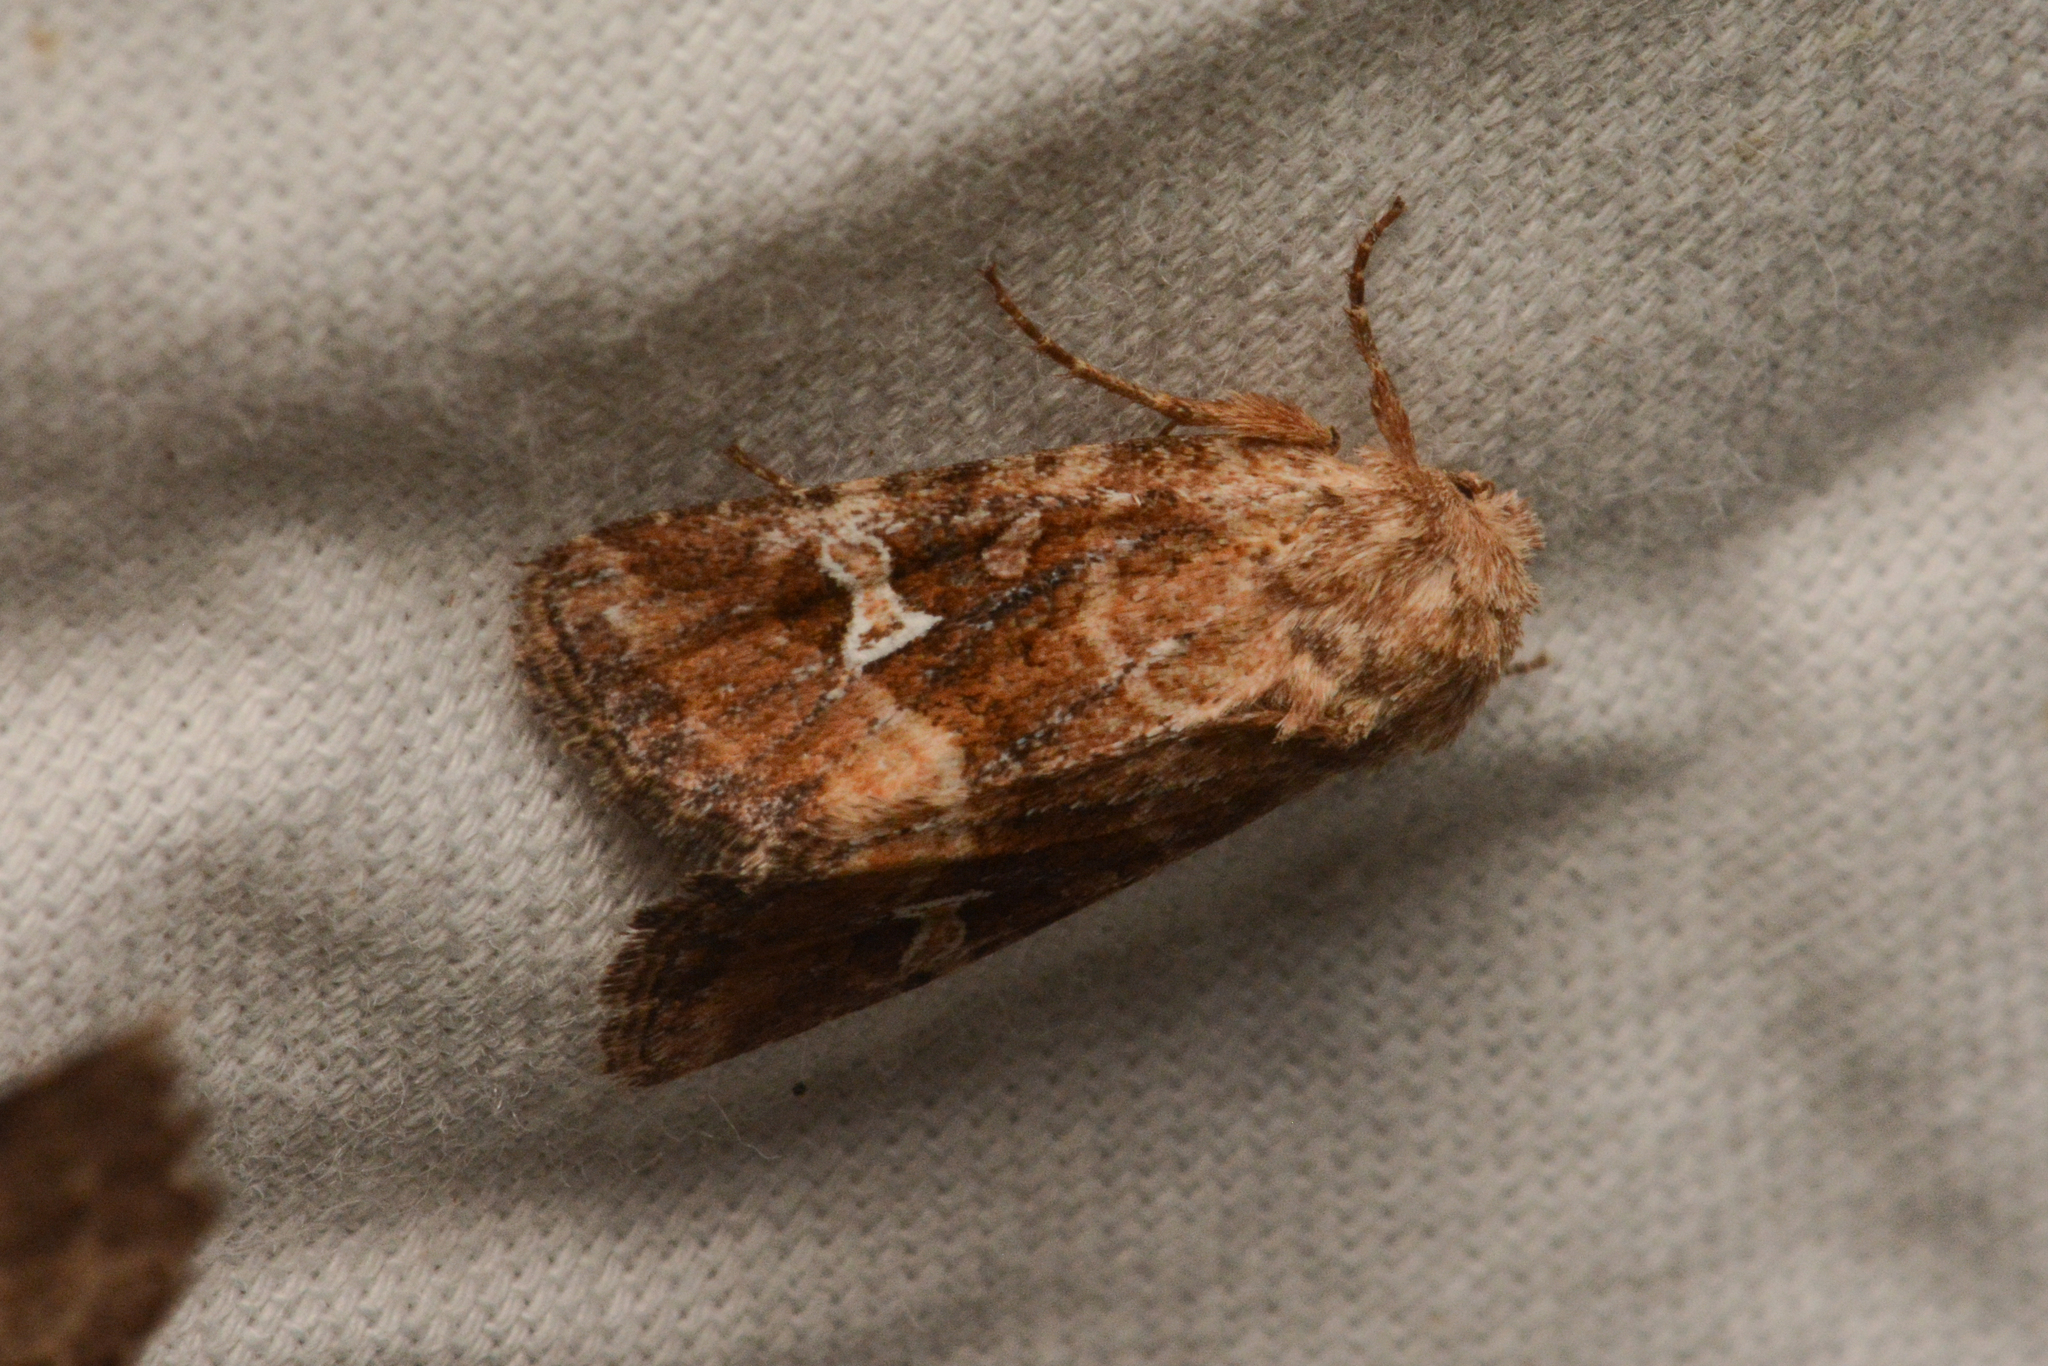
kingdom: Animalia
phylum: Arthropoda
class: Insecta
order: Lepidoptera
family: Noctuidae
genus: Lacinipolia
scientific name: Lacinipolia stricta
